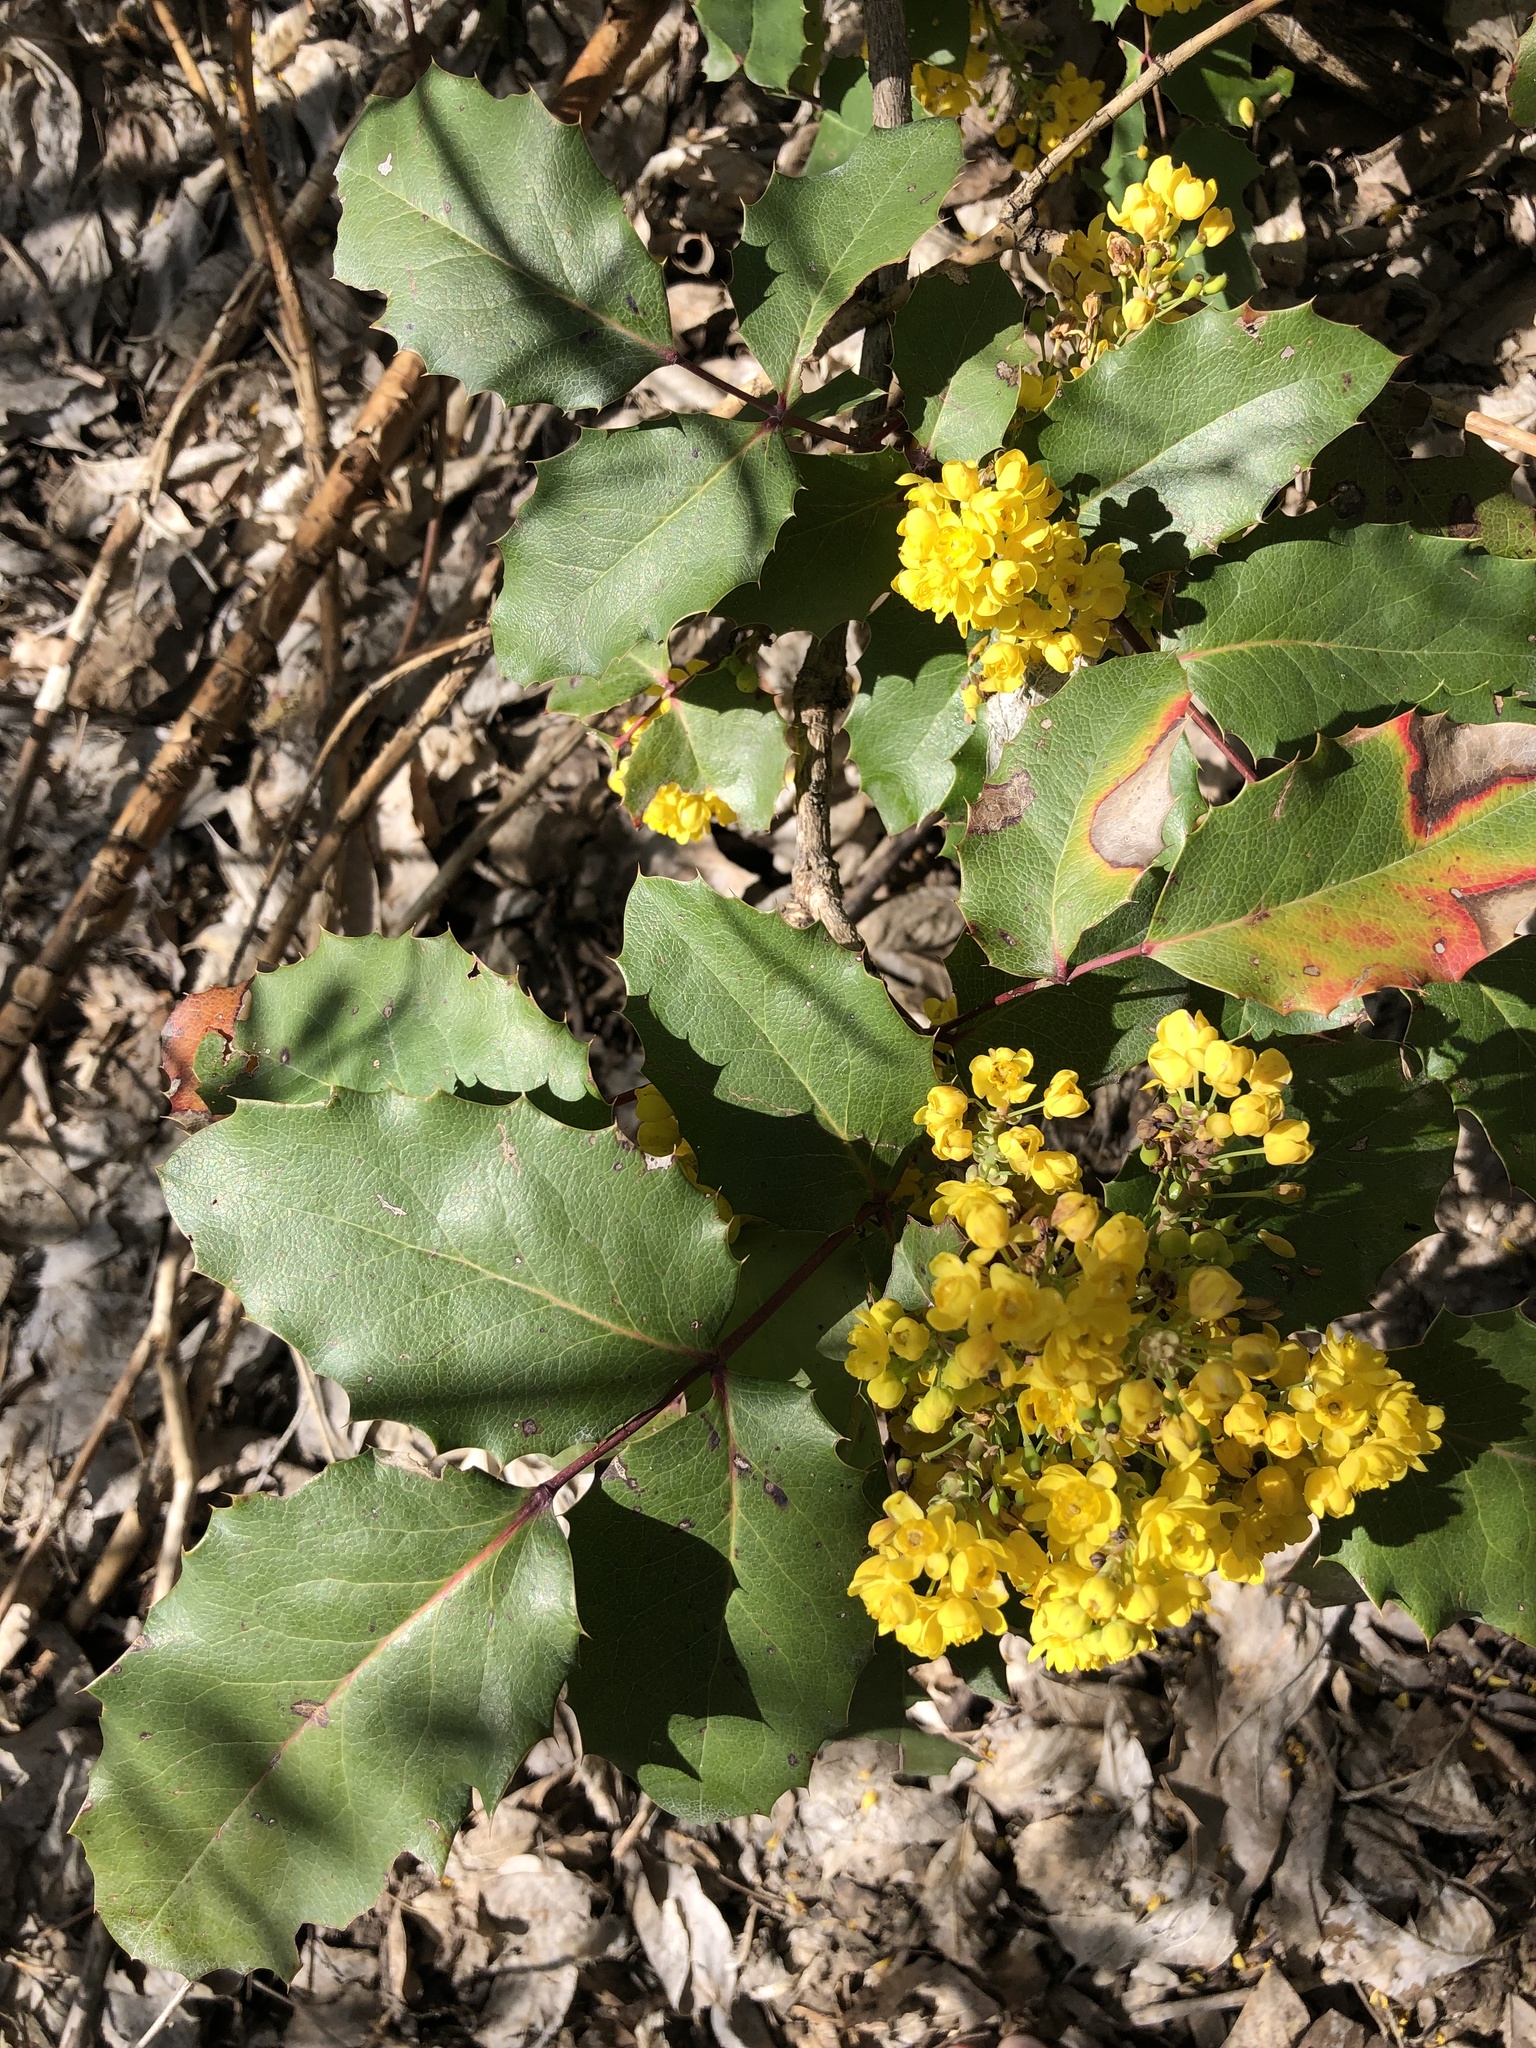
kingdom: Plantae
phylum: Tracheophyta
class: Magnoliopsida
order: Ranunculales
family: Berberidaceae
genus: Mahonia
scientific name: Mahonia repens
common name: Creeping oregon-grape
